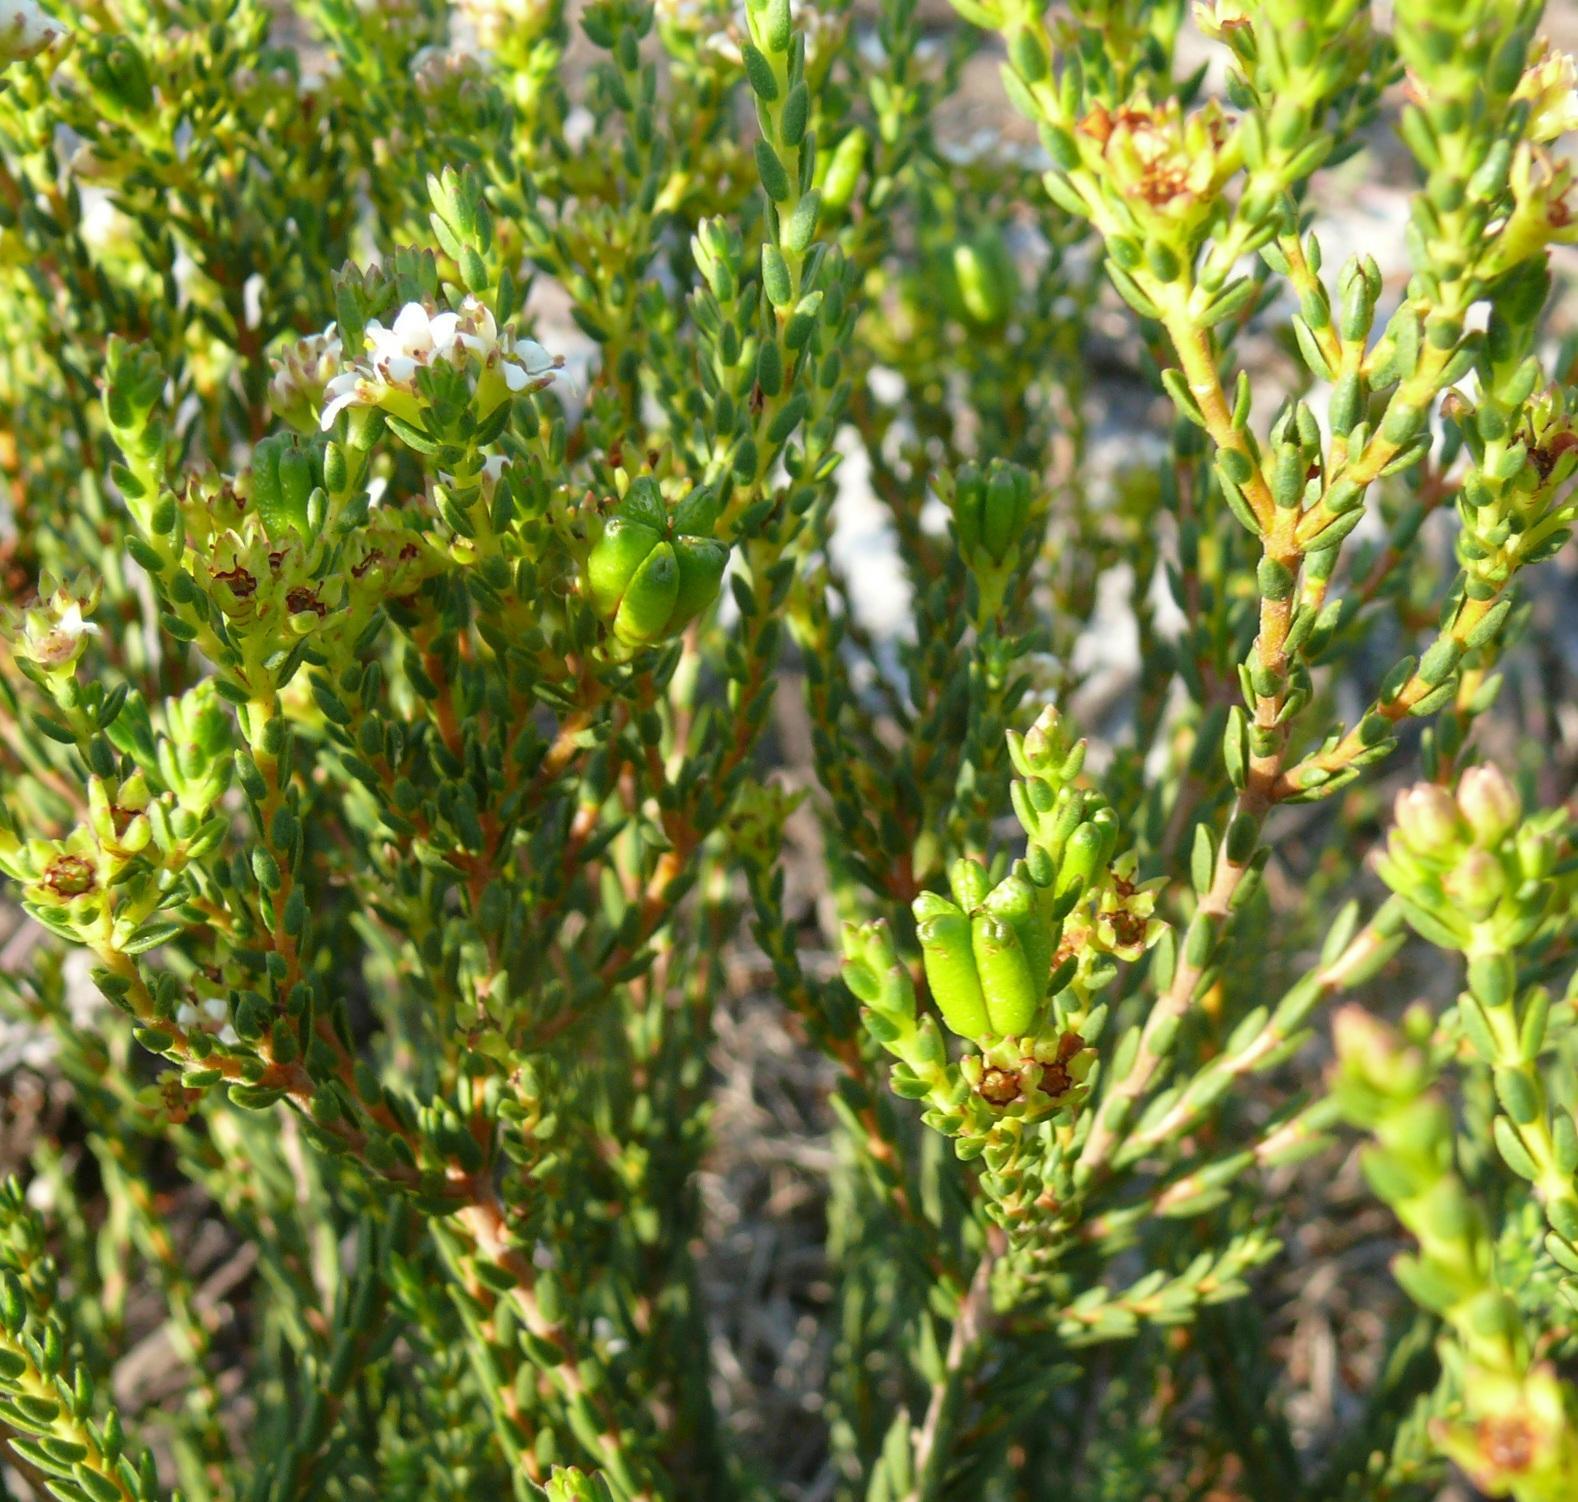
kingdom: Plantae
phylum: Tracheophyta
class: Magnoliopsida
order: Sapindales
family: Rutaceae
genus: Diosma
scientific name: Diosma oppositifolia
